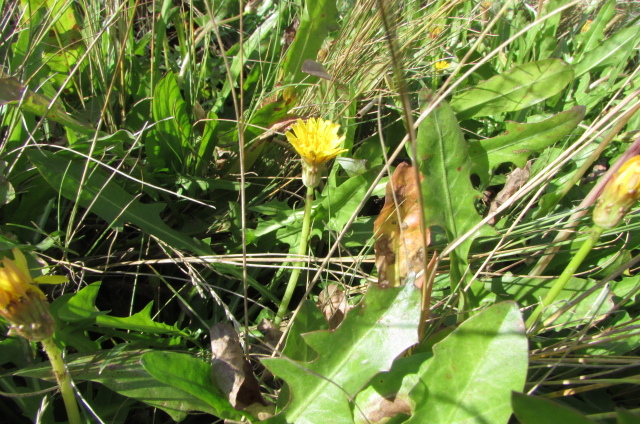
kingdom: Plantae
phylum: Tracheophyta
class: Magnoliopsida
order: Asterales
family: Asteraceae
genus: Taraxacum
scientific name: Taraxacum bessarabicum
